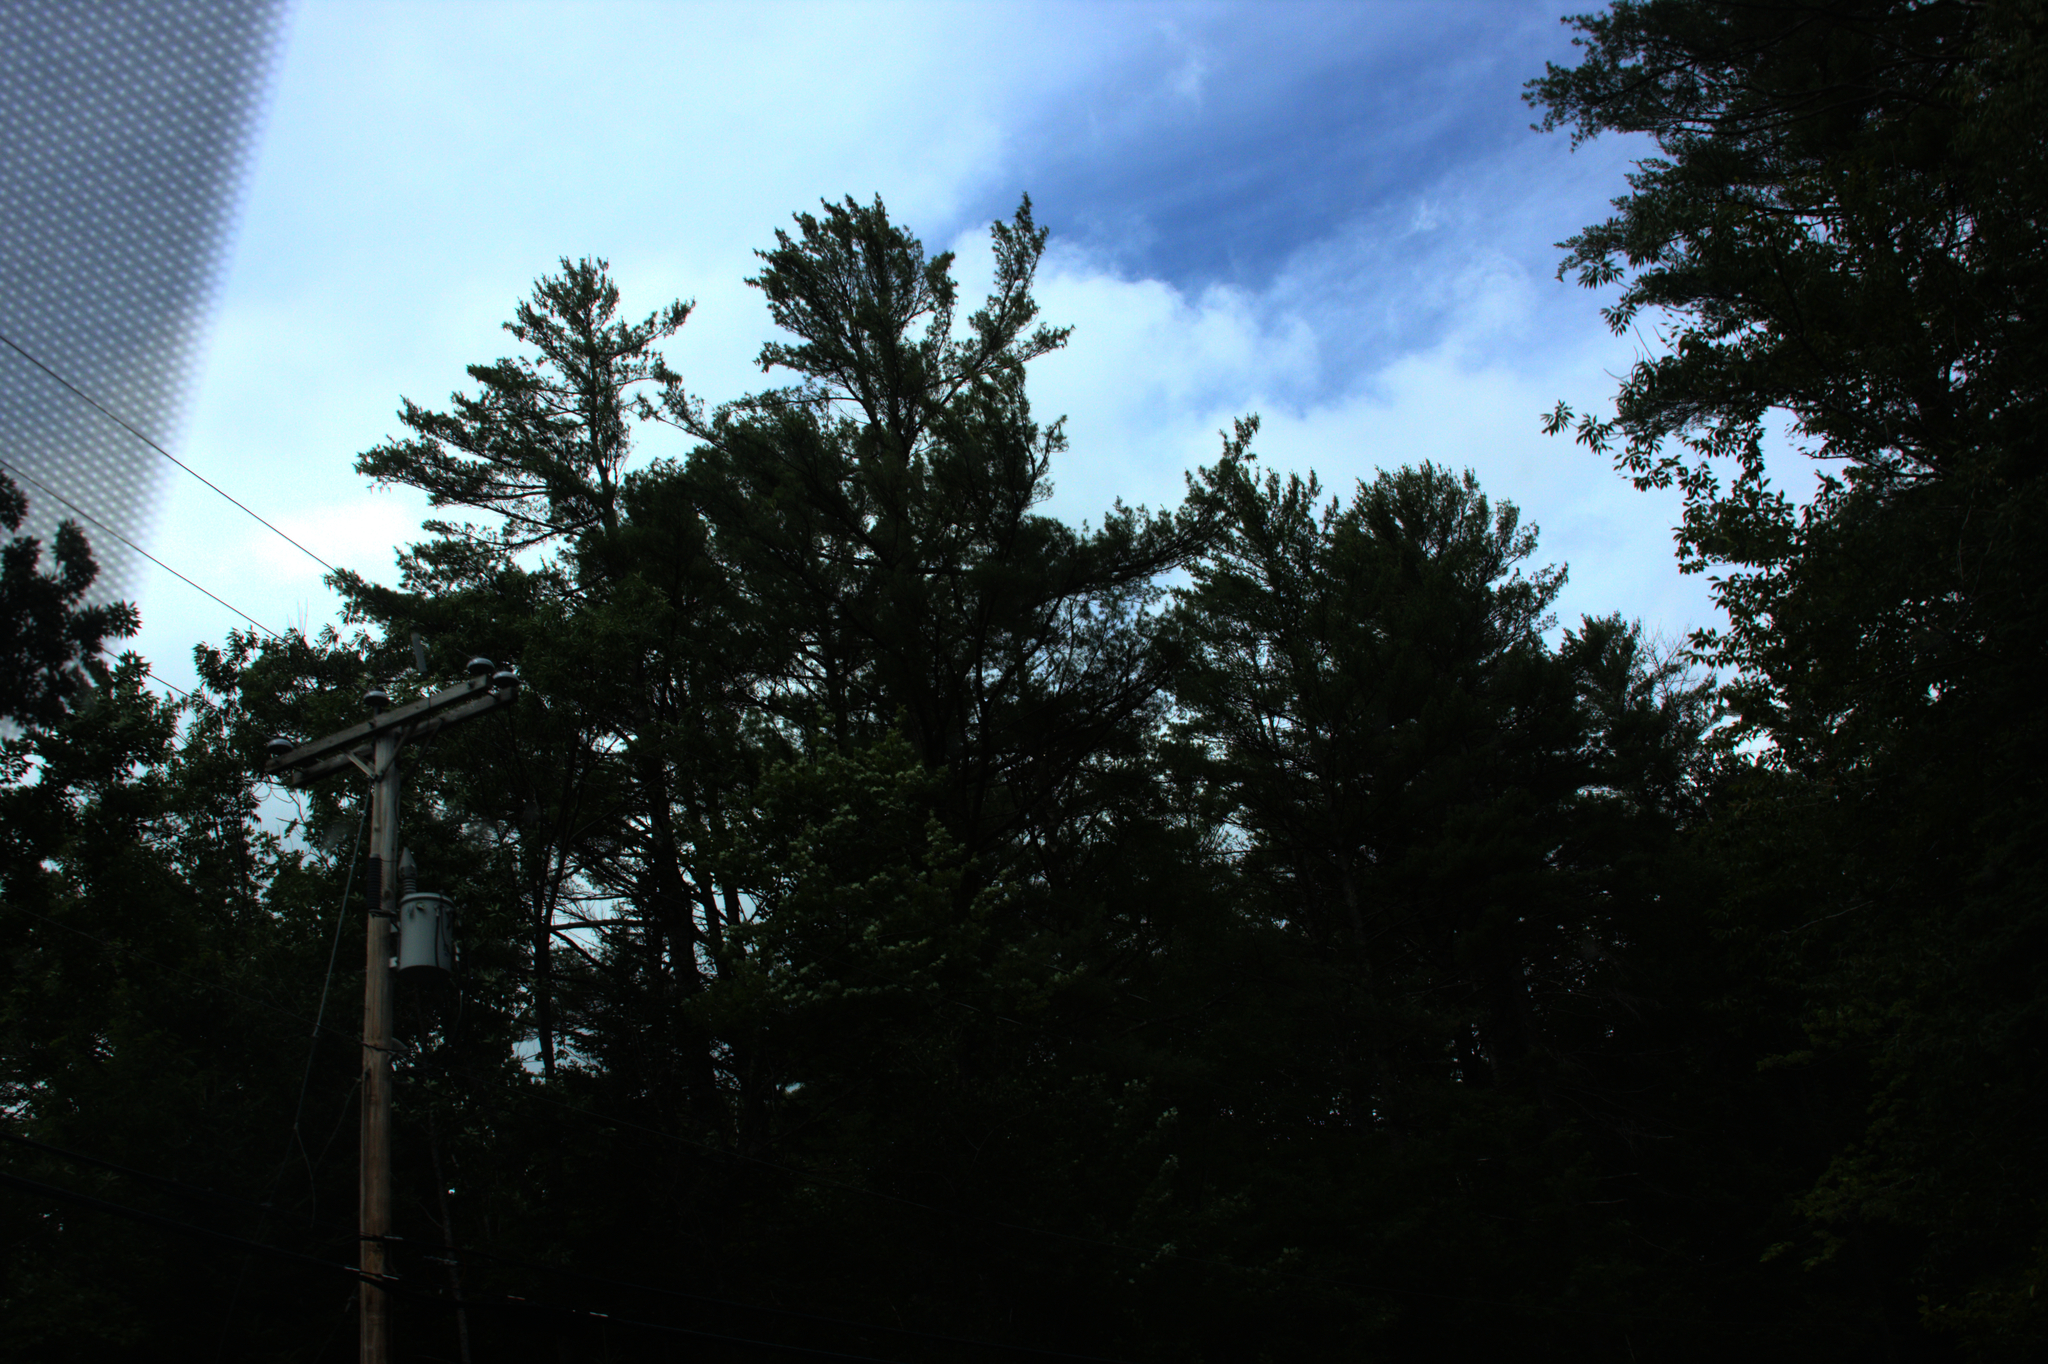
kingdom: Plantae
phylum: Tracheophyta
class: Pinopsida
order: Pinales
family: Pinaceae
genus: Pinus
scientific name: Pinus strobus
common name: Weymouth pine
